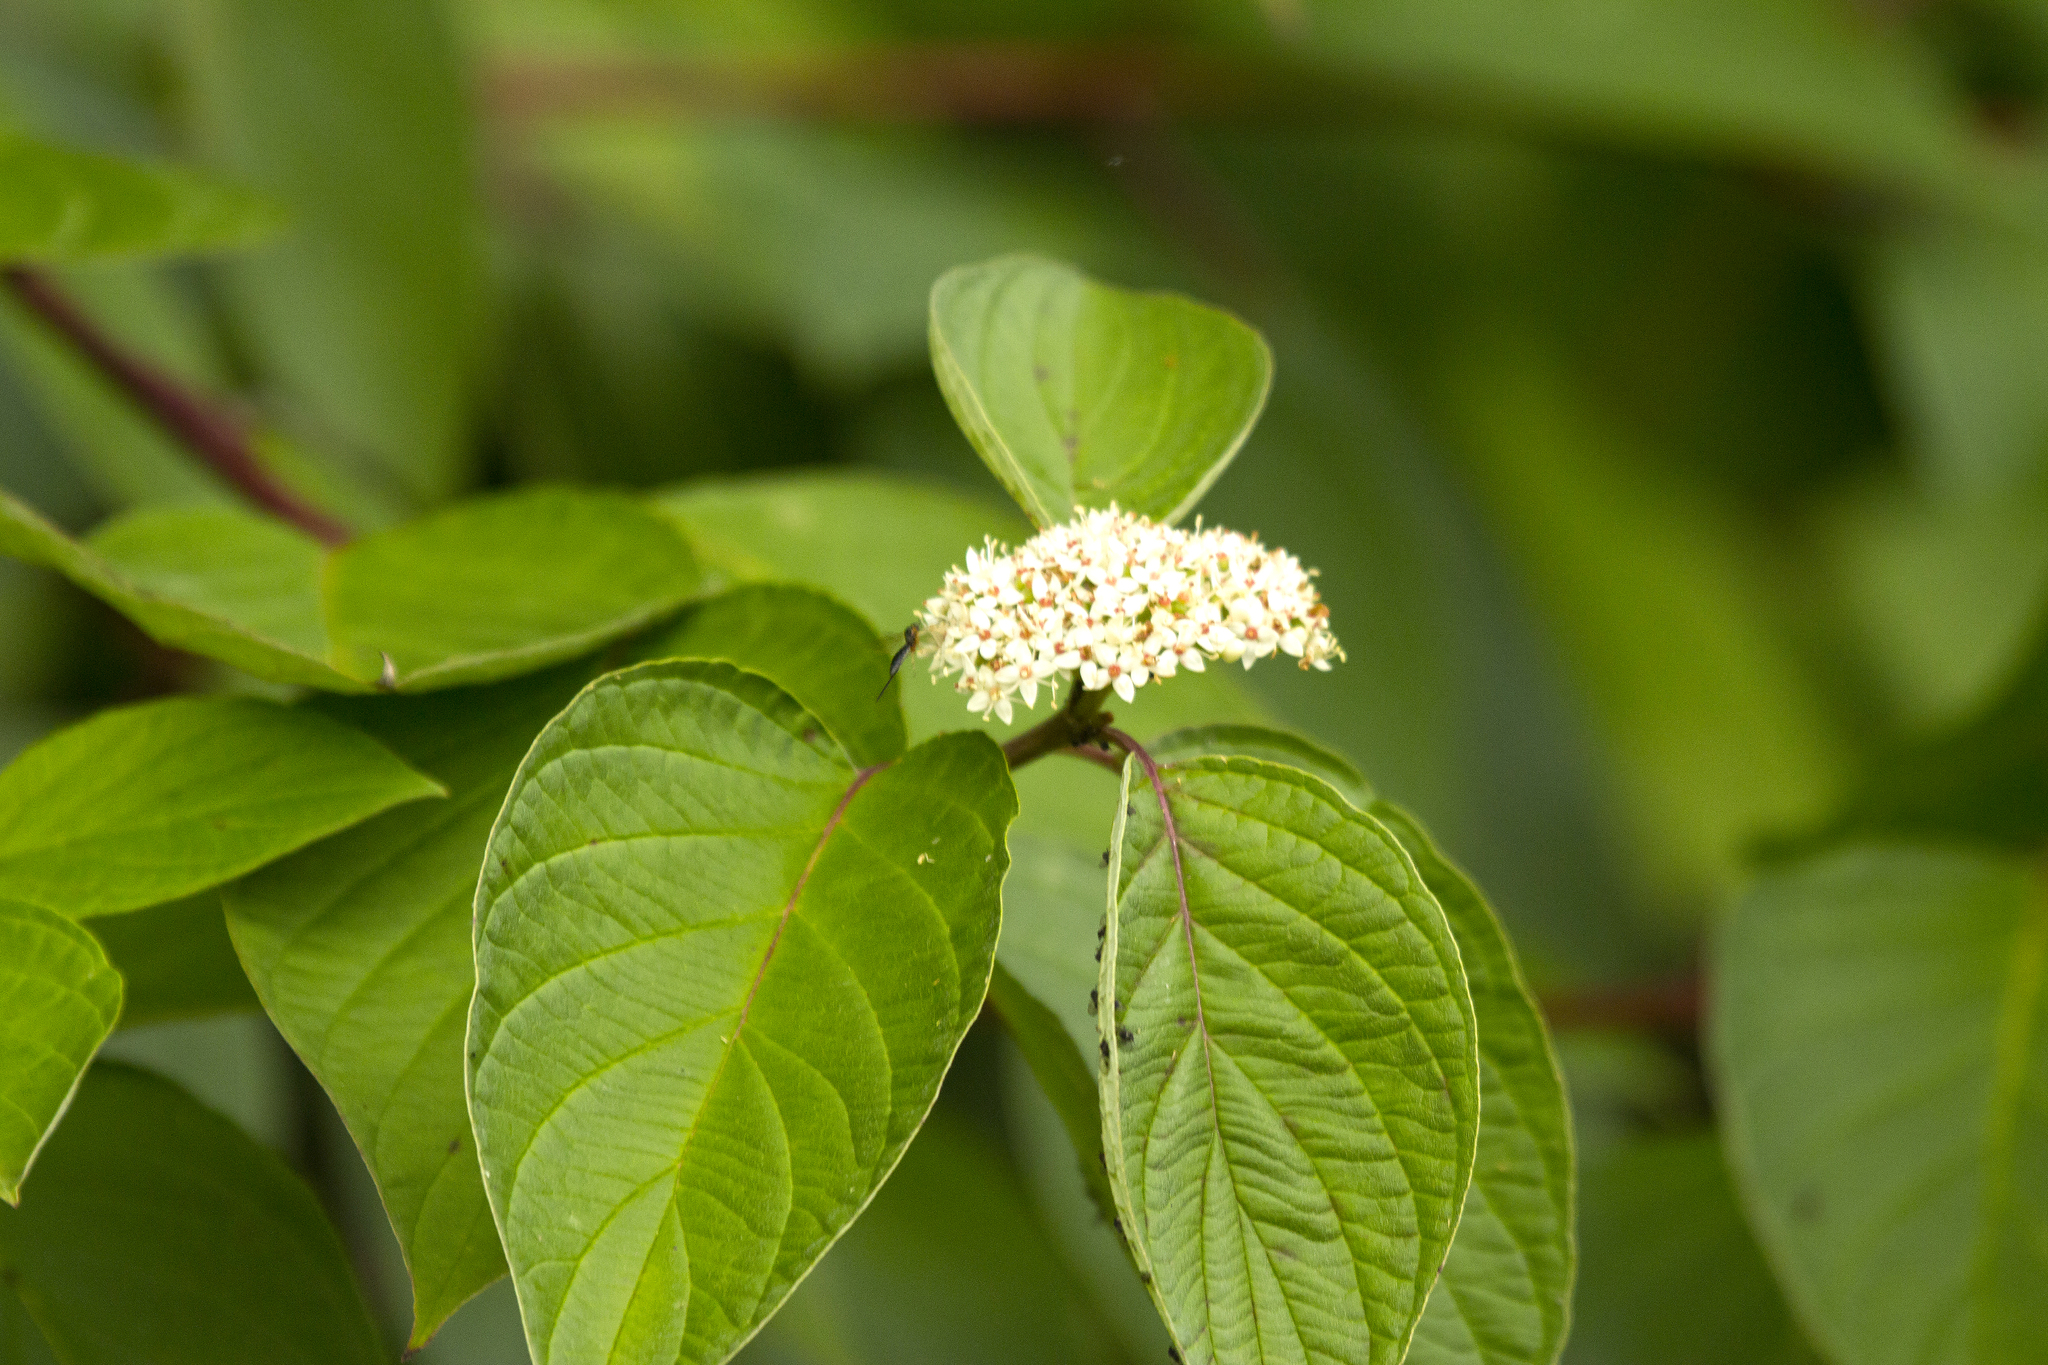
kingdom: Plantae
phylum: Tracheophyta
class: Magnoliopsida
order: Cornales
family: Cornaceae
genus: Cornus
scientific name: Cornus sericea
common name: Red-osier dogwood
